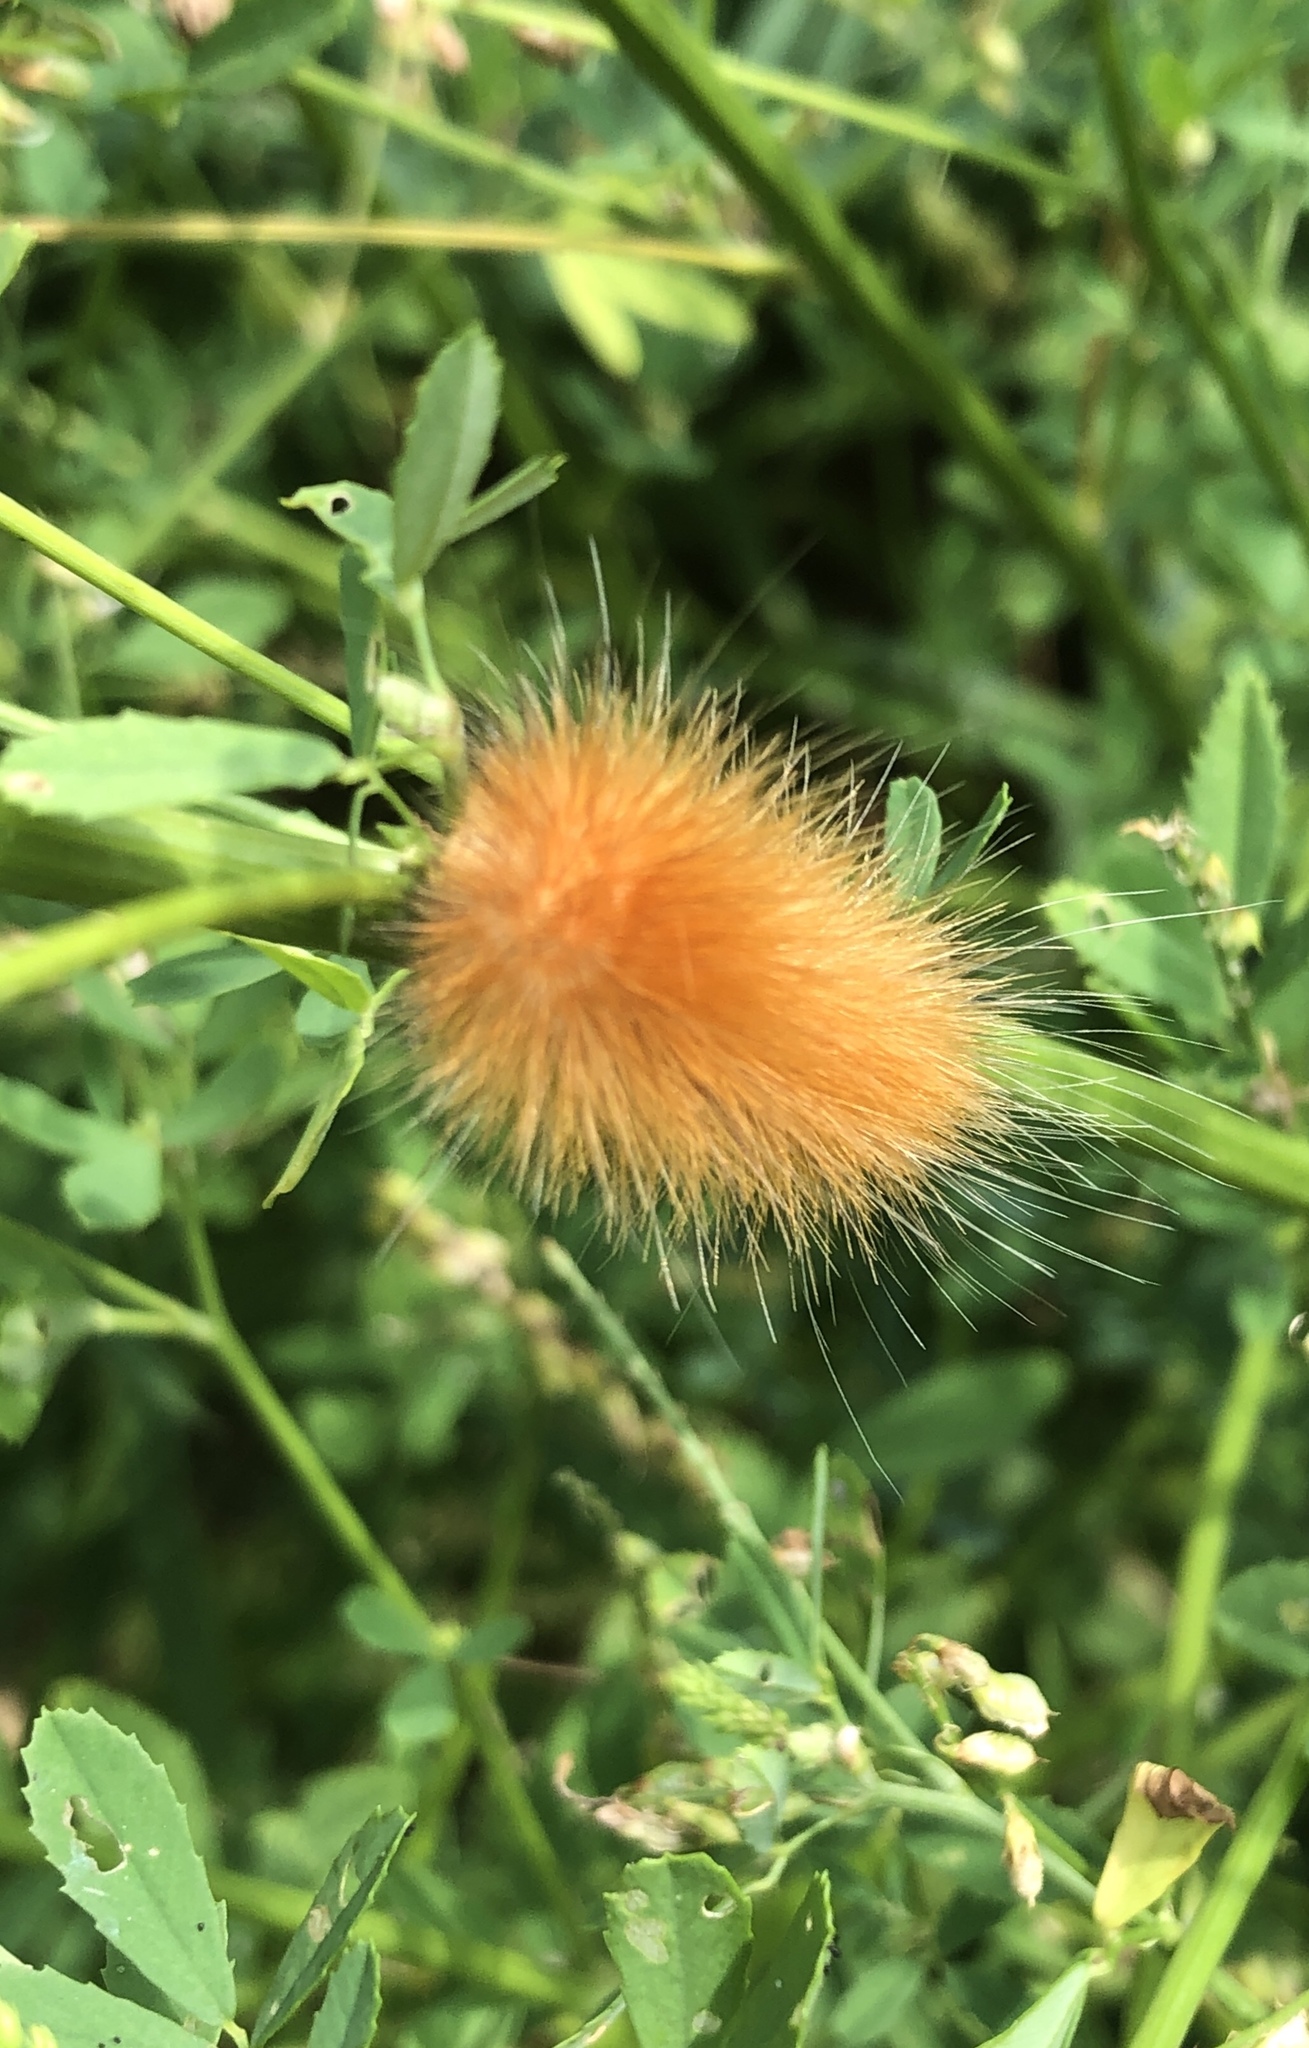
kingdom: Animalia
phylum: Arthropoda
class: Insecta
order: Lepidoptera
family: Erebidae
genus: Spilosoma
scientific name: Spilosoma virginica
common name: Virginia tiger moth
